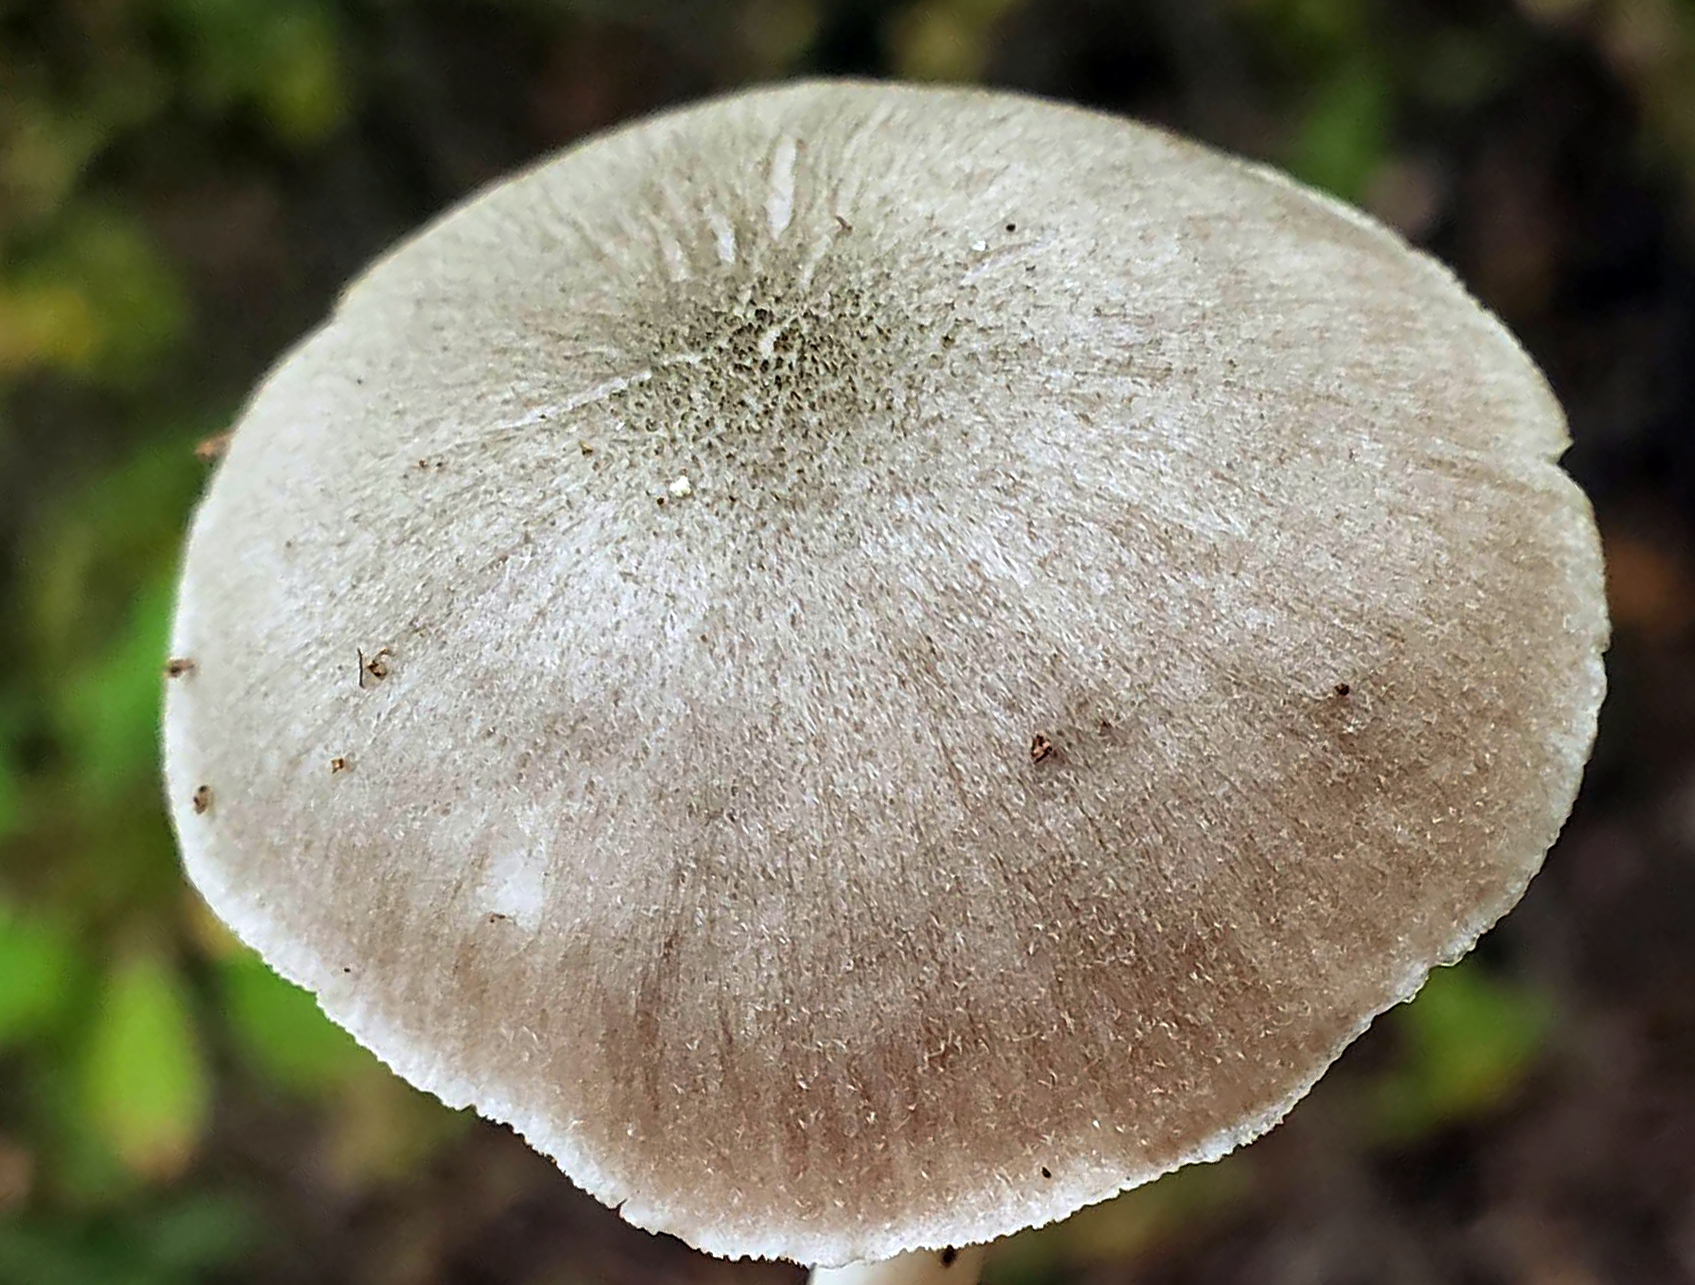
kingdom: Fungi
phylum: Basidiomycota
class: Agaricomycetes
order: Agaricales
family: Pluteaceae
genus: Pluteus
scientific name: Pluteus americanus
